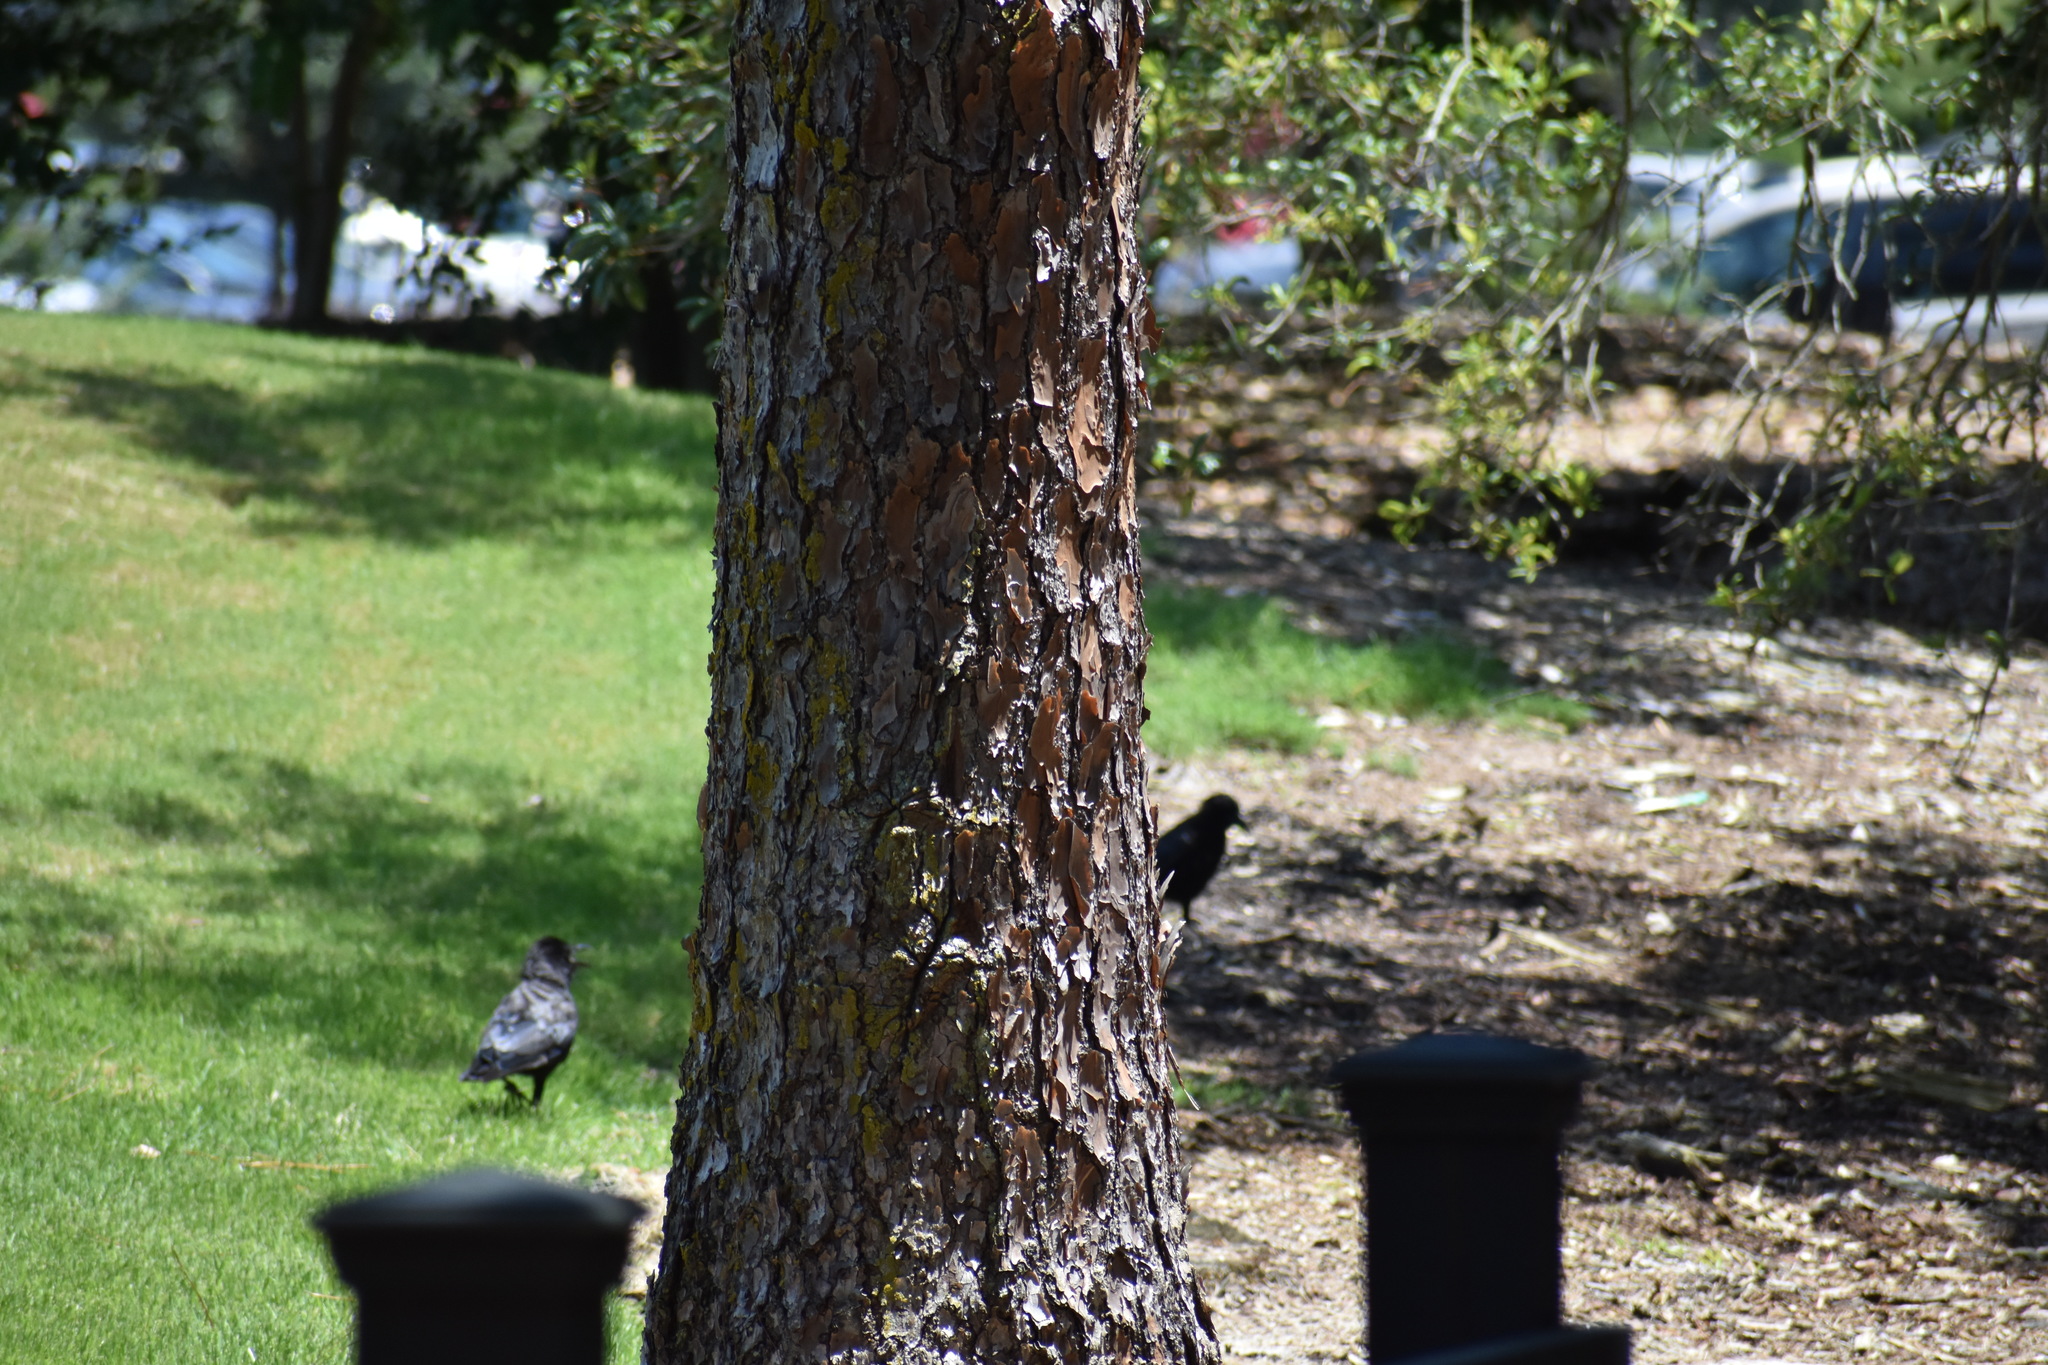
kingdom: Animalia
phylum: Chordata
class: Aves
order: Passeriformes
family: Corvidae
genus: Corvus
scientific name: Corvus brachyrhynchos
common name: American crow
